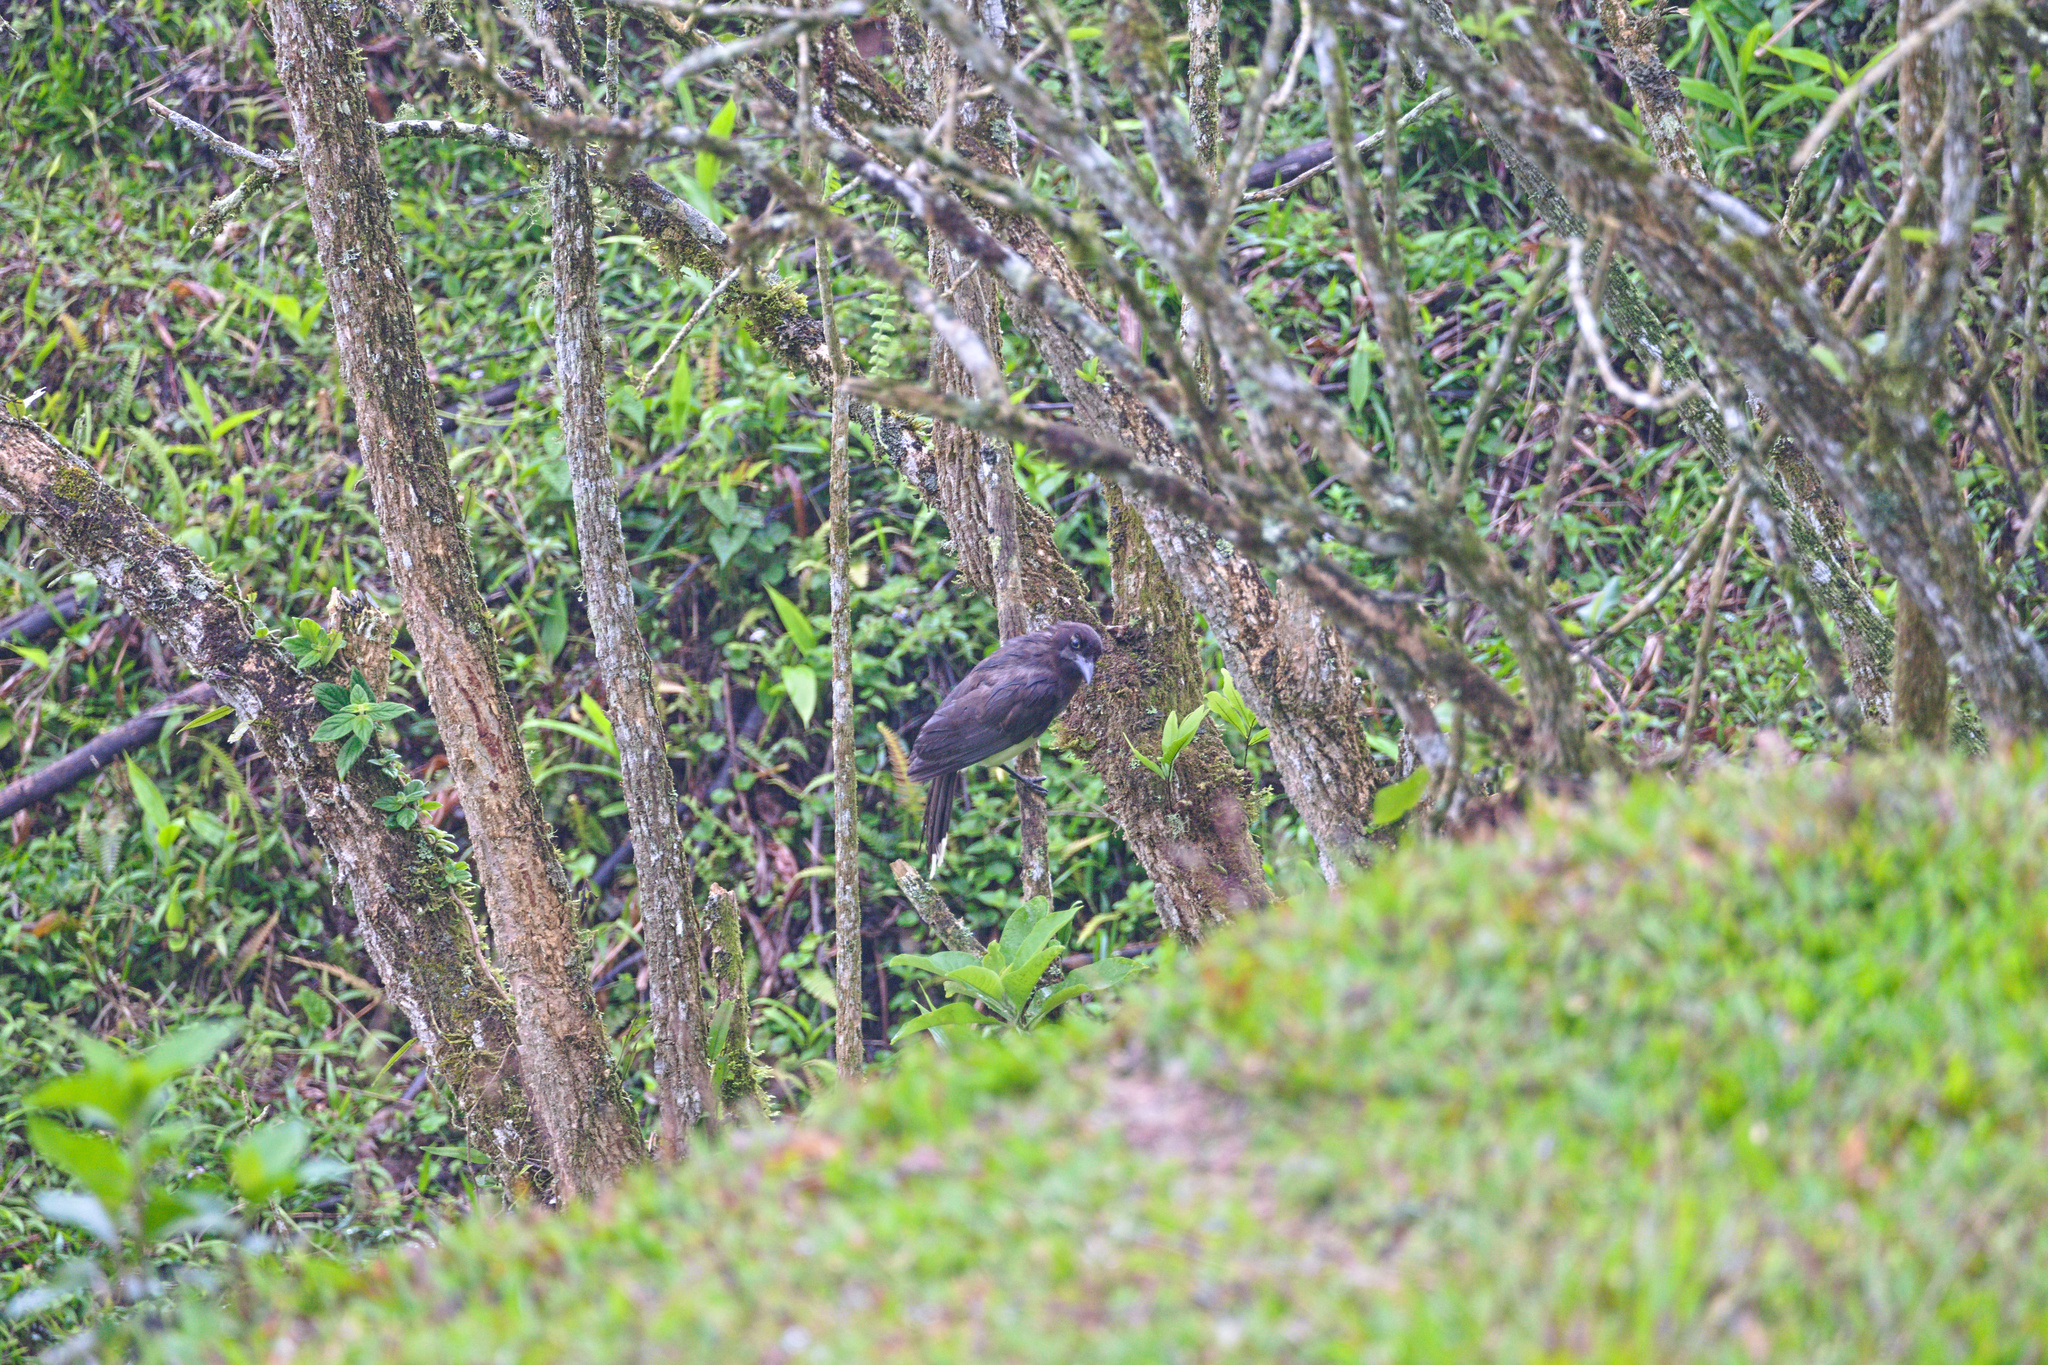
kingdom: Animalia
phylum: Chordata
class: Aves
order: Passeriformes
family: Corvidae
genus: Psilorhinus
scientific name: Psilorhinus morio
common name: Brown jay
